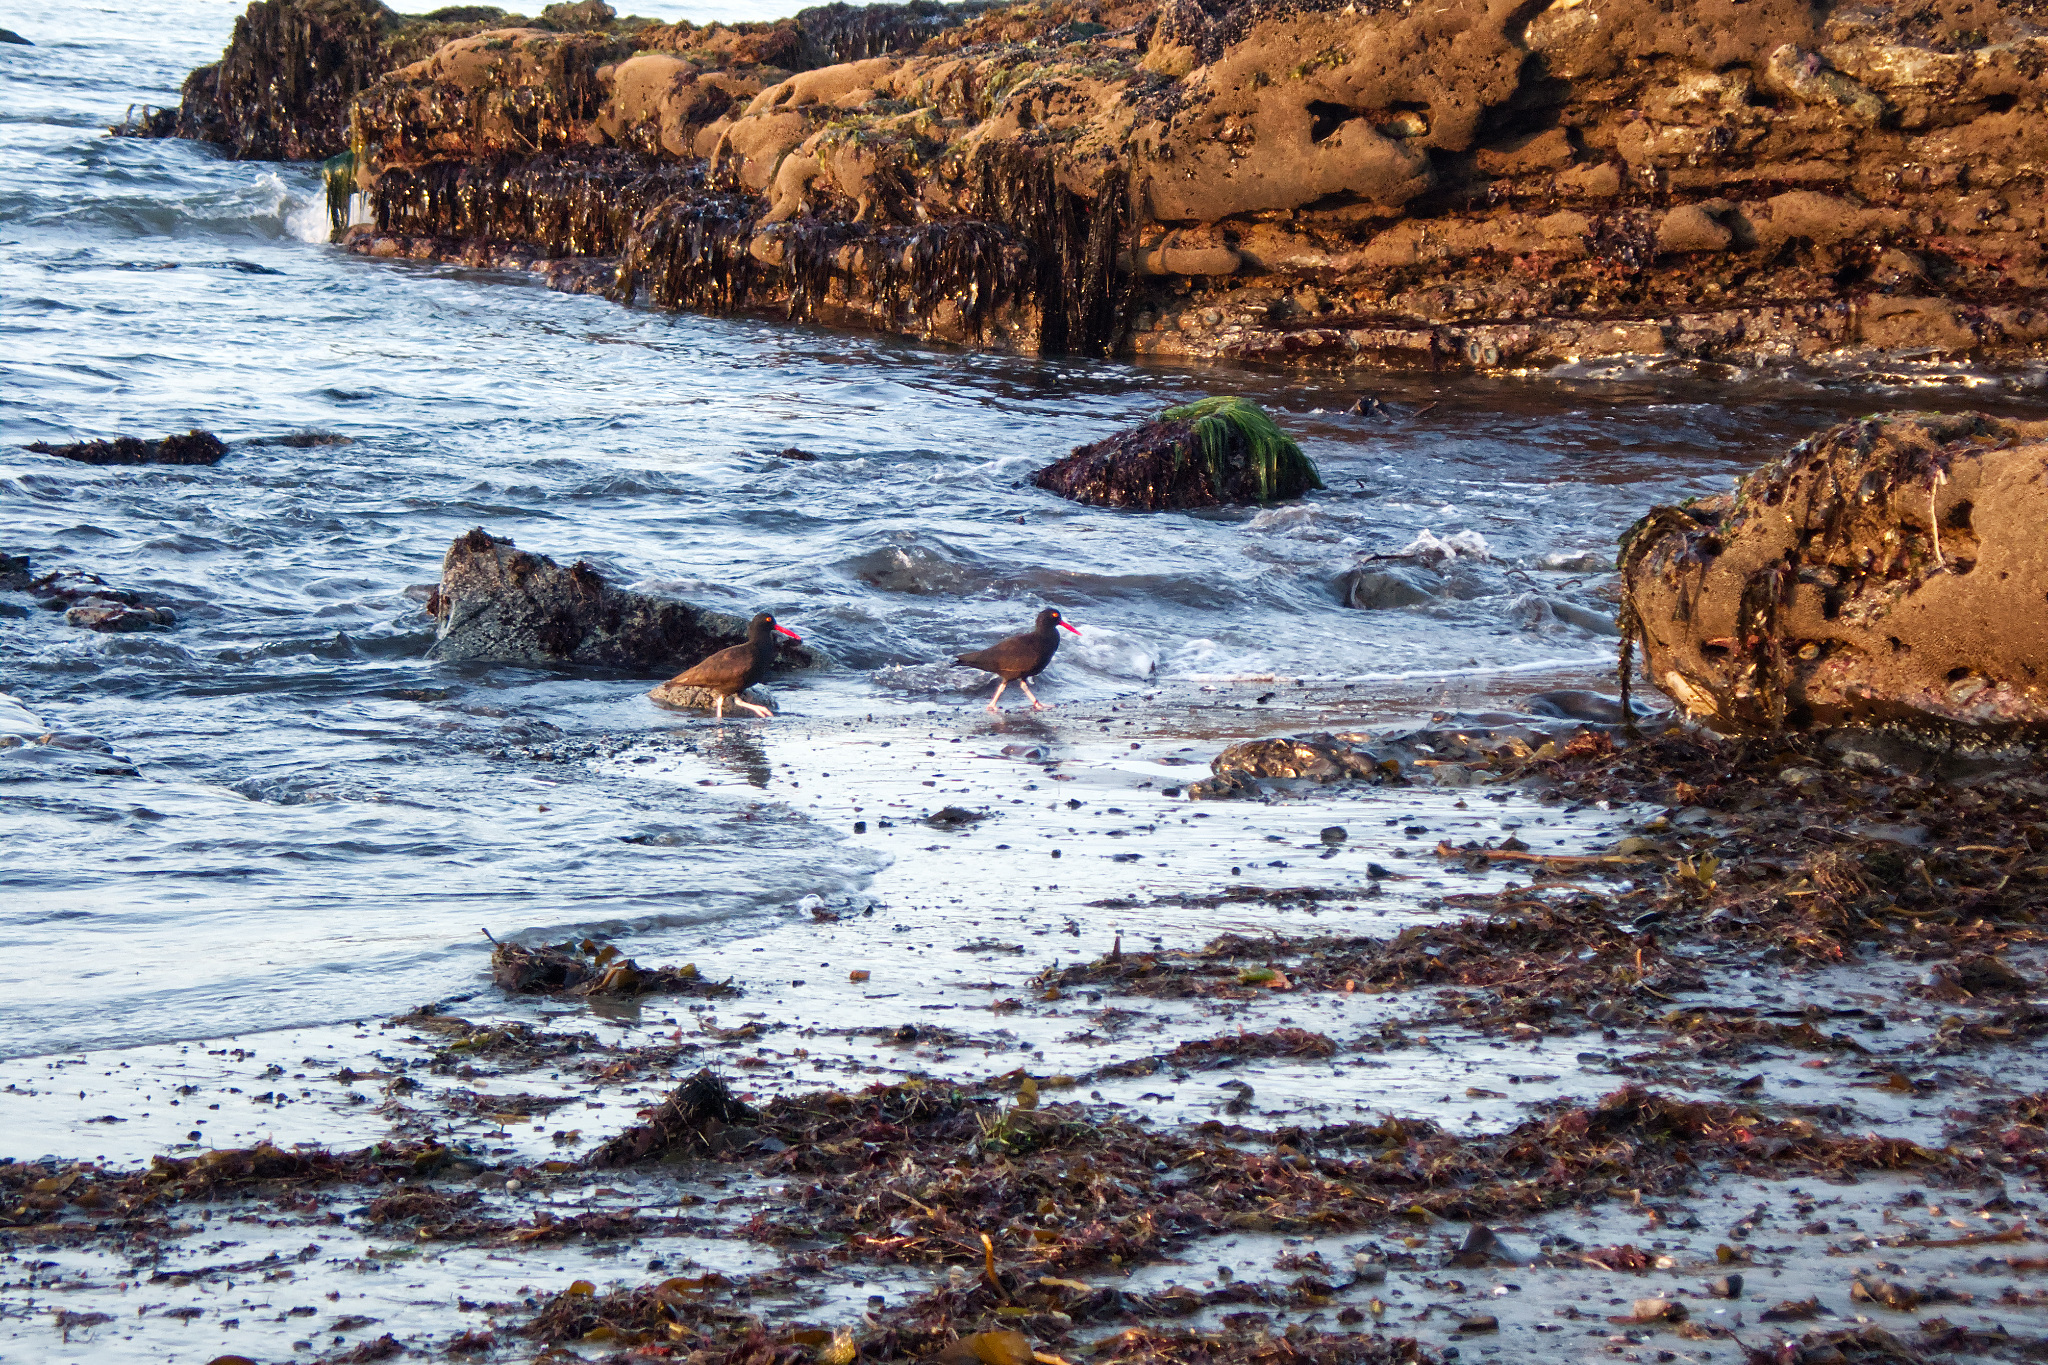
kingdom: Animalia
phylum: Chordata
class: Aves
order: Charadriiformes
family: Haematopodidae
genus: Haematopus
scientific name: Haematopus bachmani
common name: Black oystercatcher
